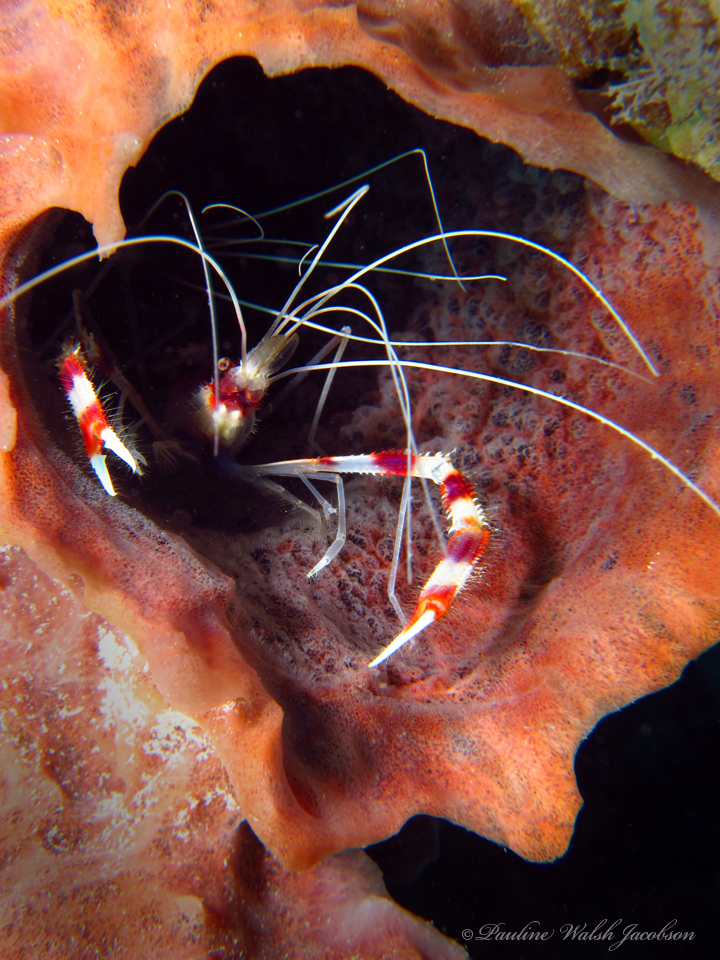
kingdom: Animalia
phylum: Arthropoda
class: Malacostraca
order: Decapoda
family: Stenopodidae
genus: Stenopus
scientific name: Stenopus hispidus
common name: Banded coral shrimp
